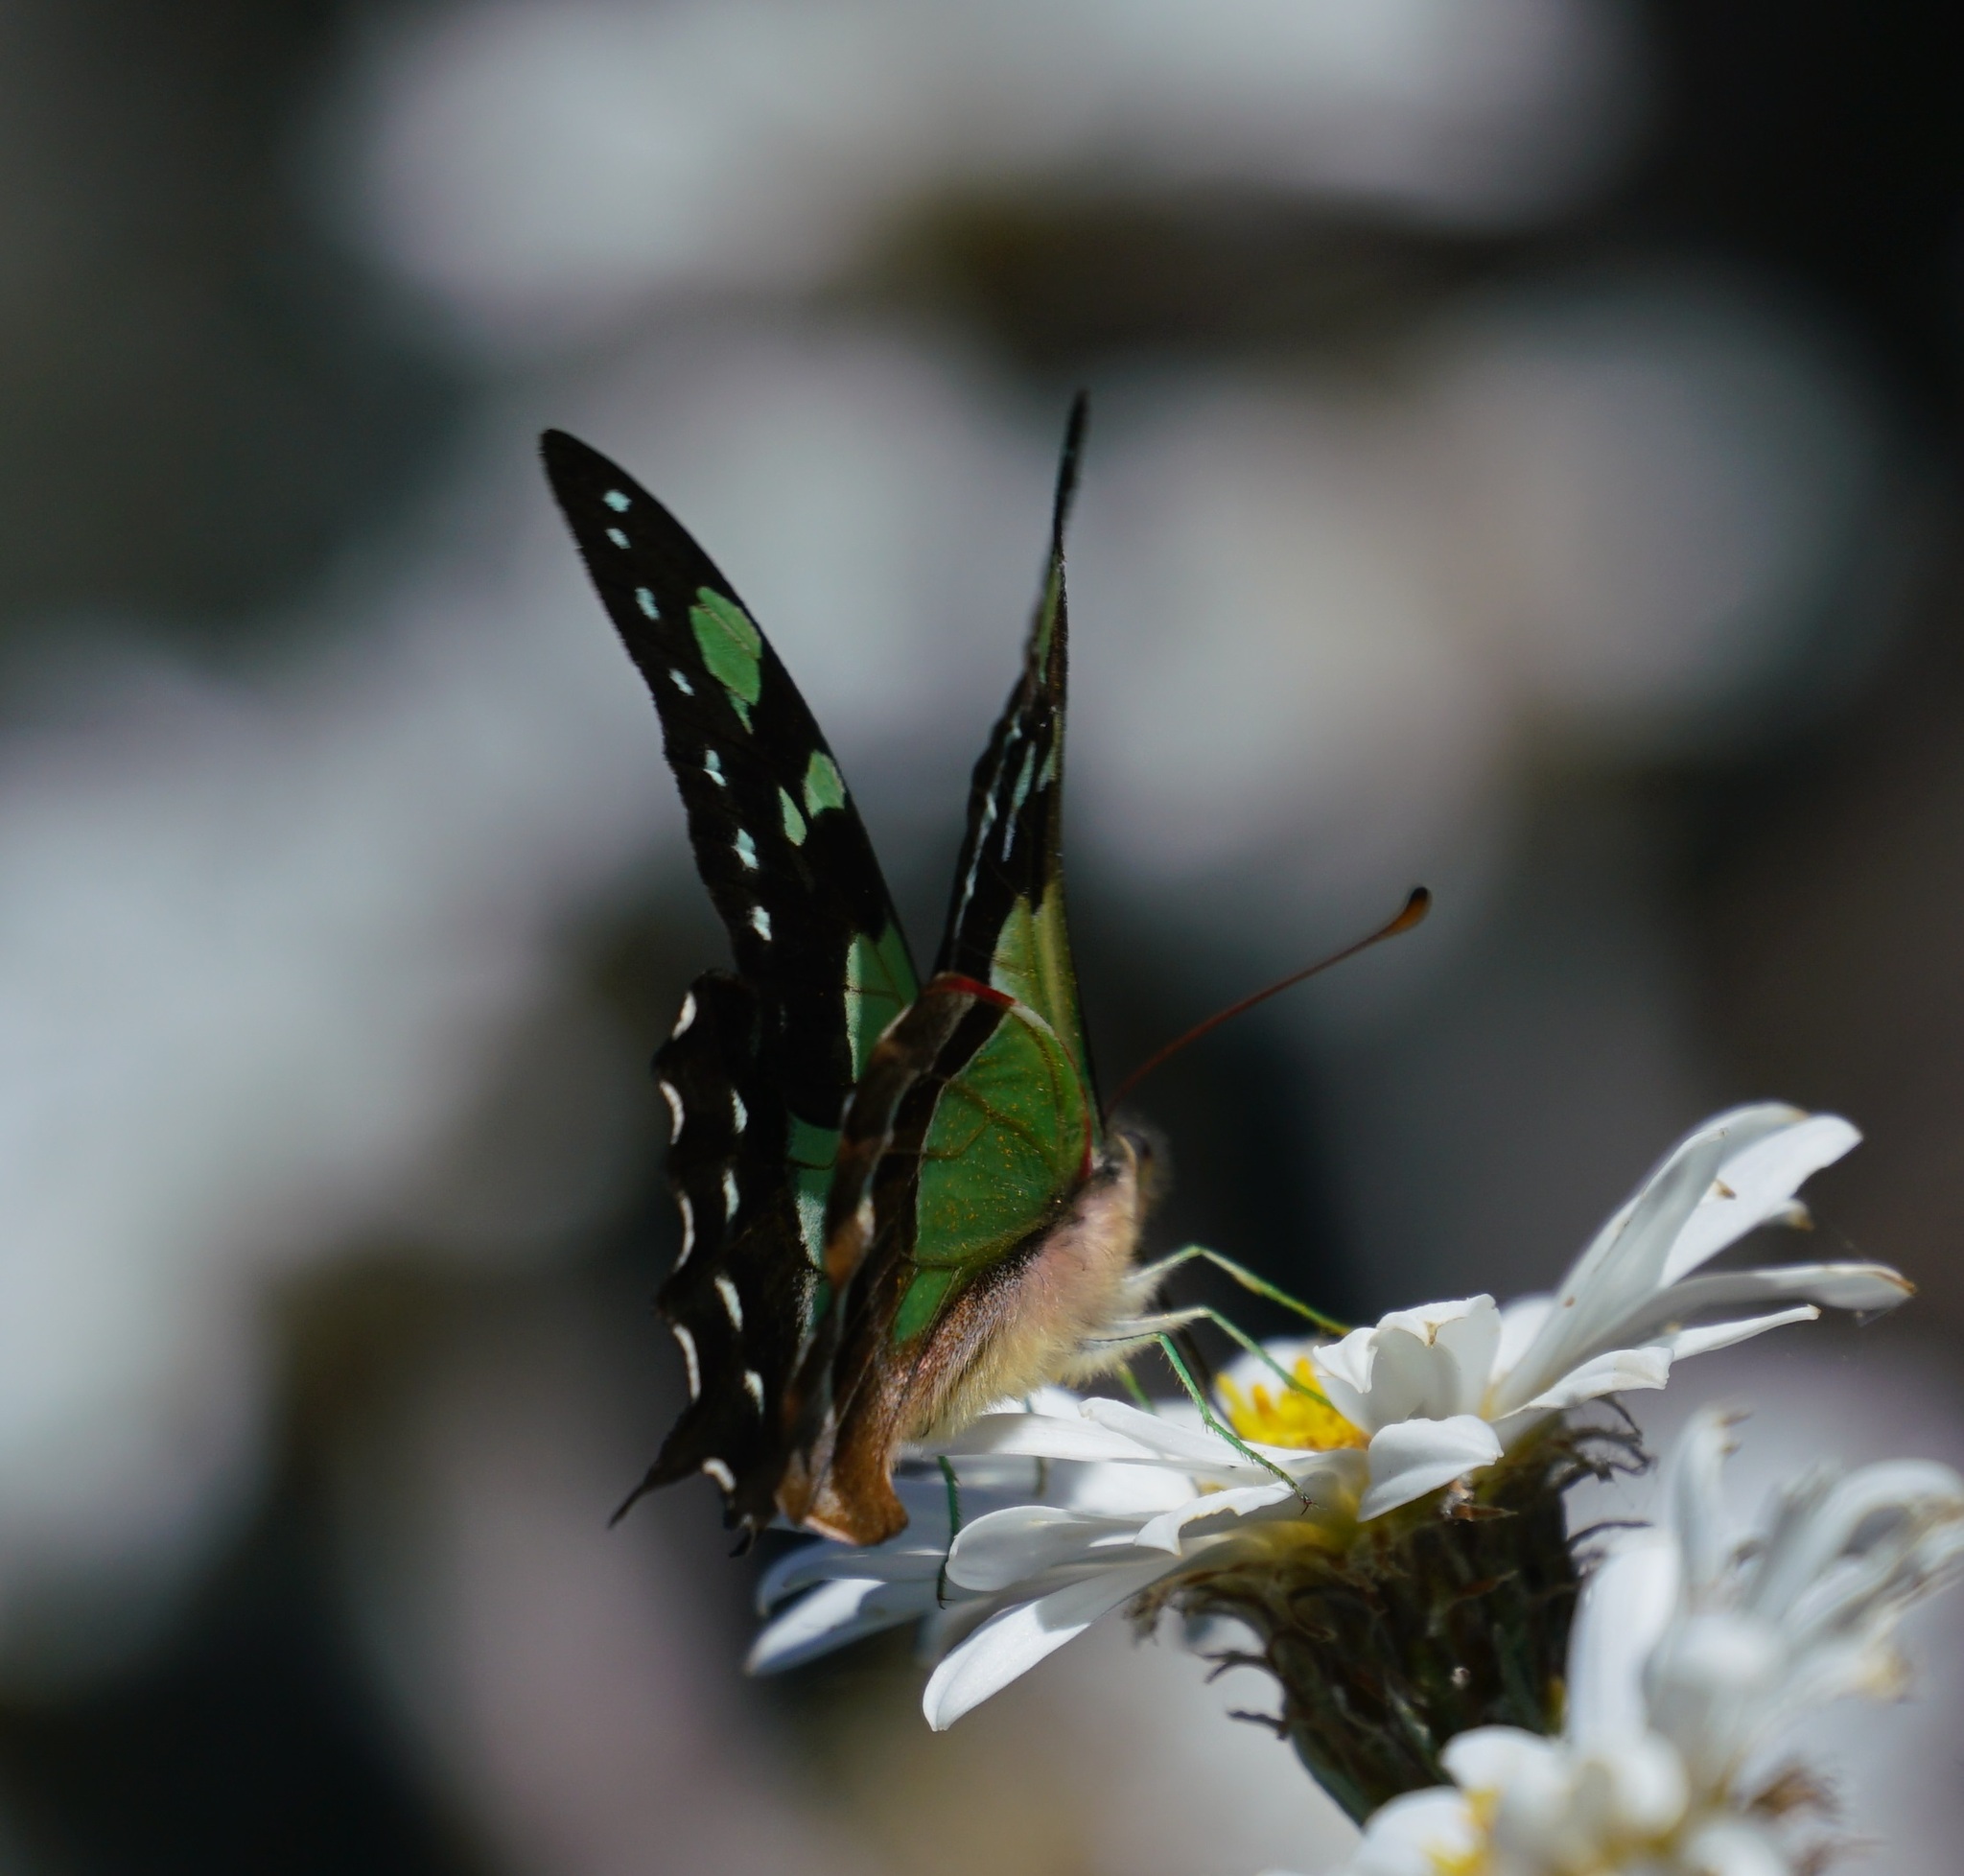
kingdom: Animalia
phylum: Arthropoda
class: Insecta
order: Lepidoptera
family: Papilionidae
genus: Graphium
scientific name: Graphium macleayanus
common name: Macleay's swallowtail
